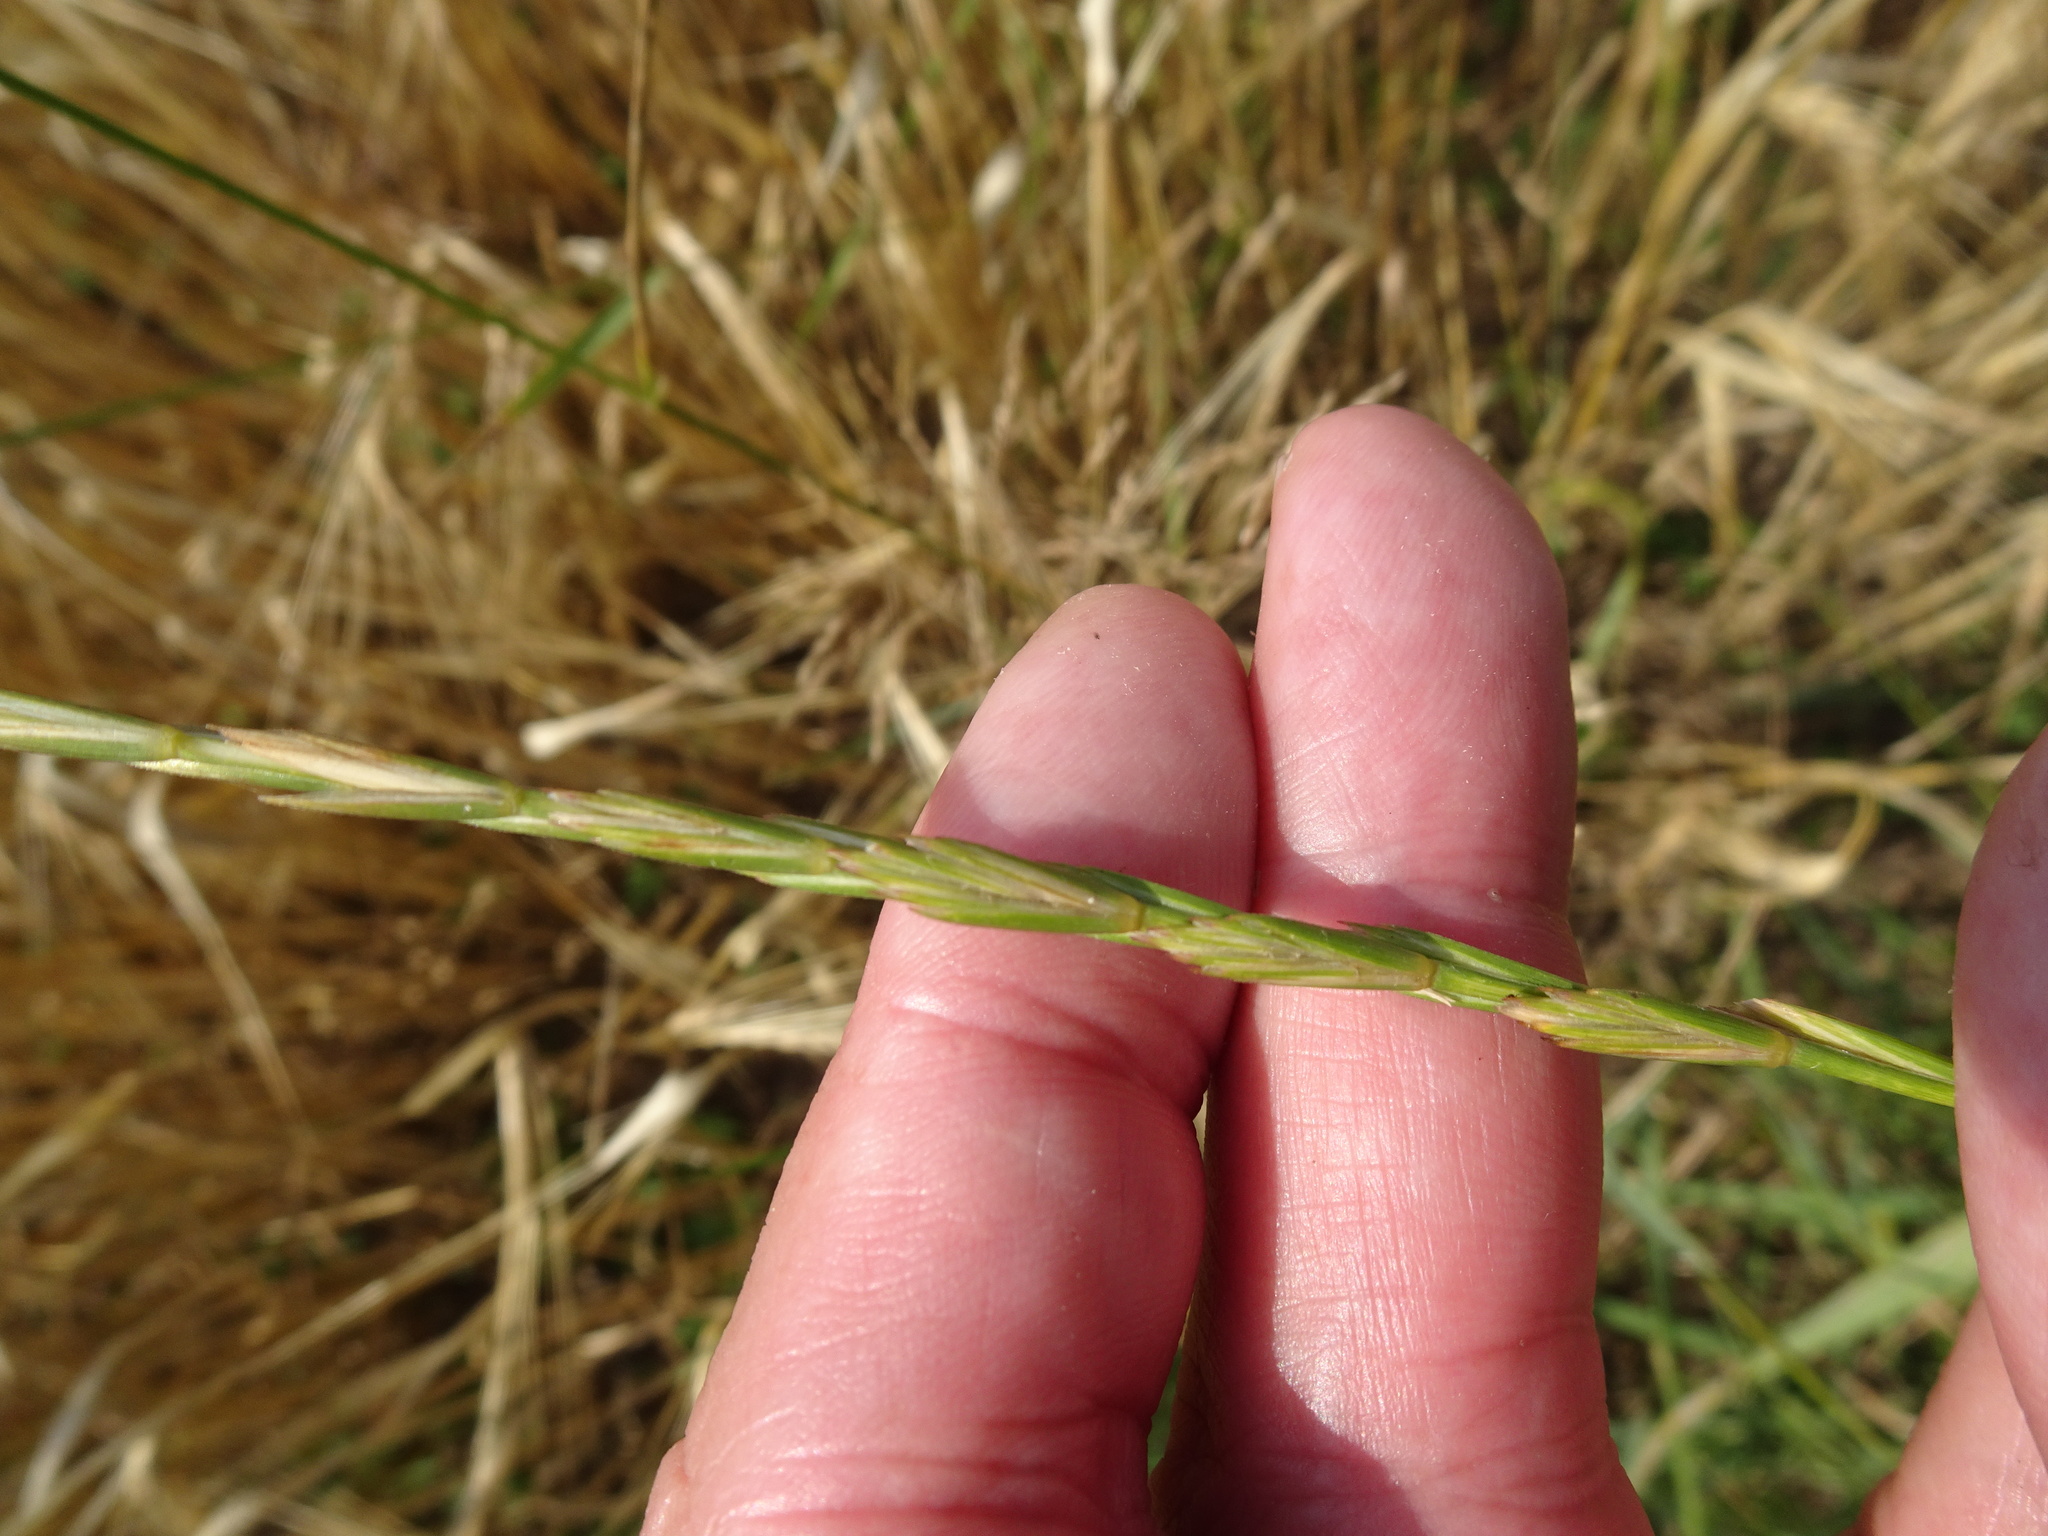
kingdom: Plantae
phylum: Tracheophyta
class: Liliopsida
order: Poales
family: Poaceae
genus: Elymus
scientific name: Elymus repens
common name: Quackgrass
